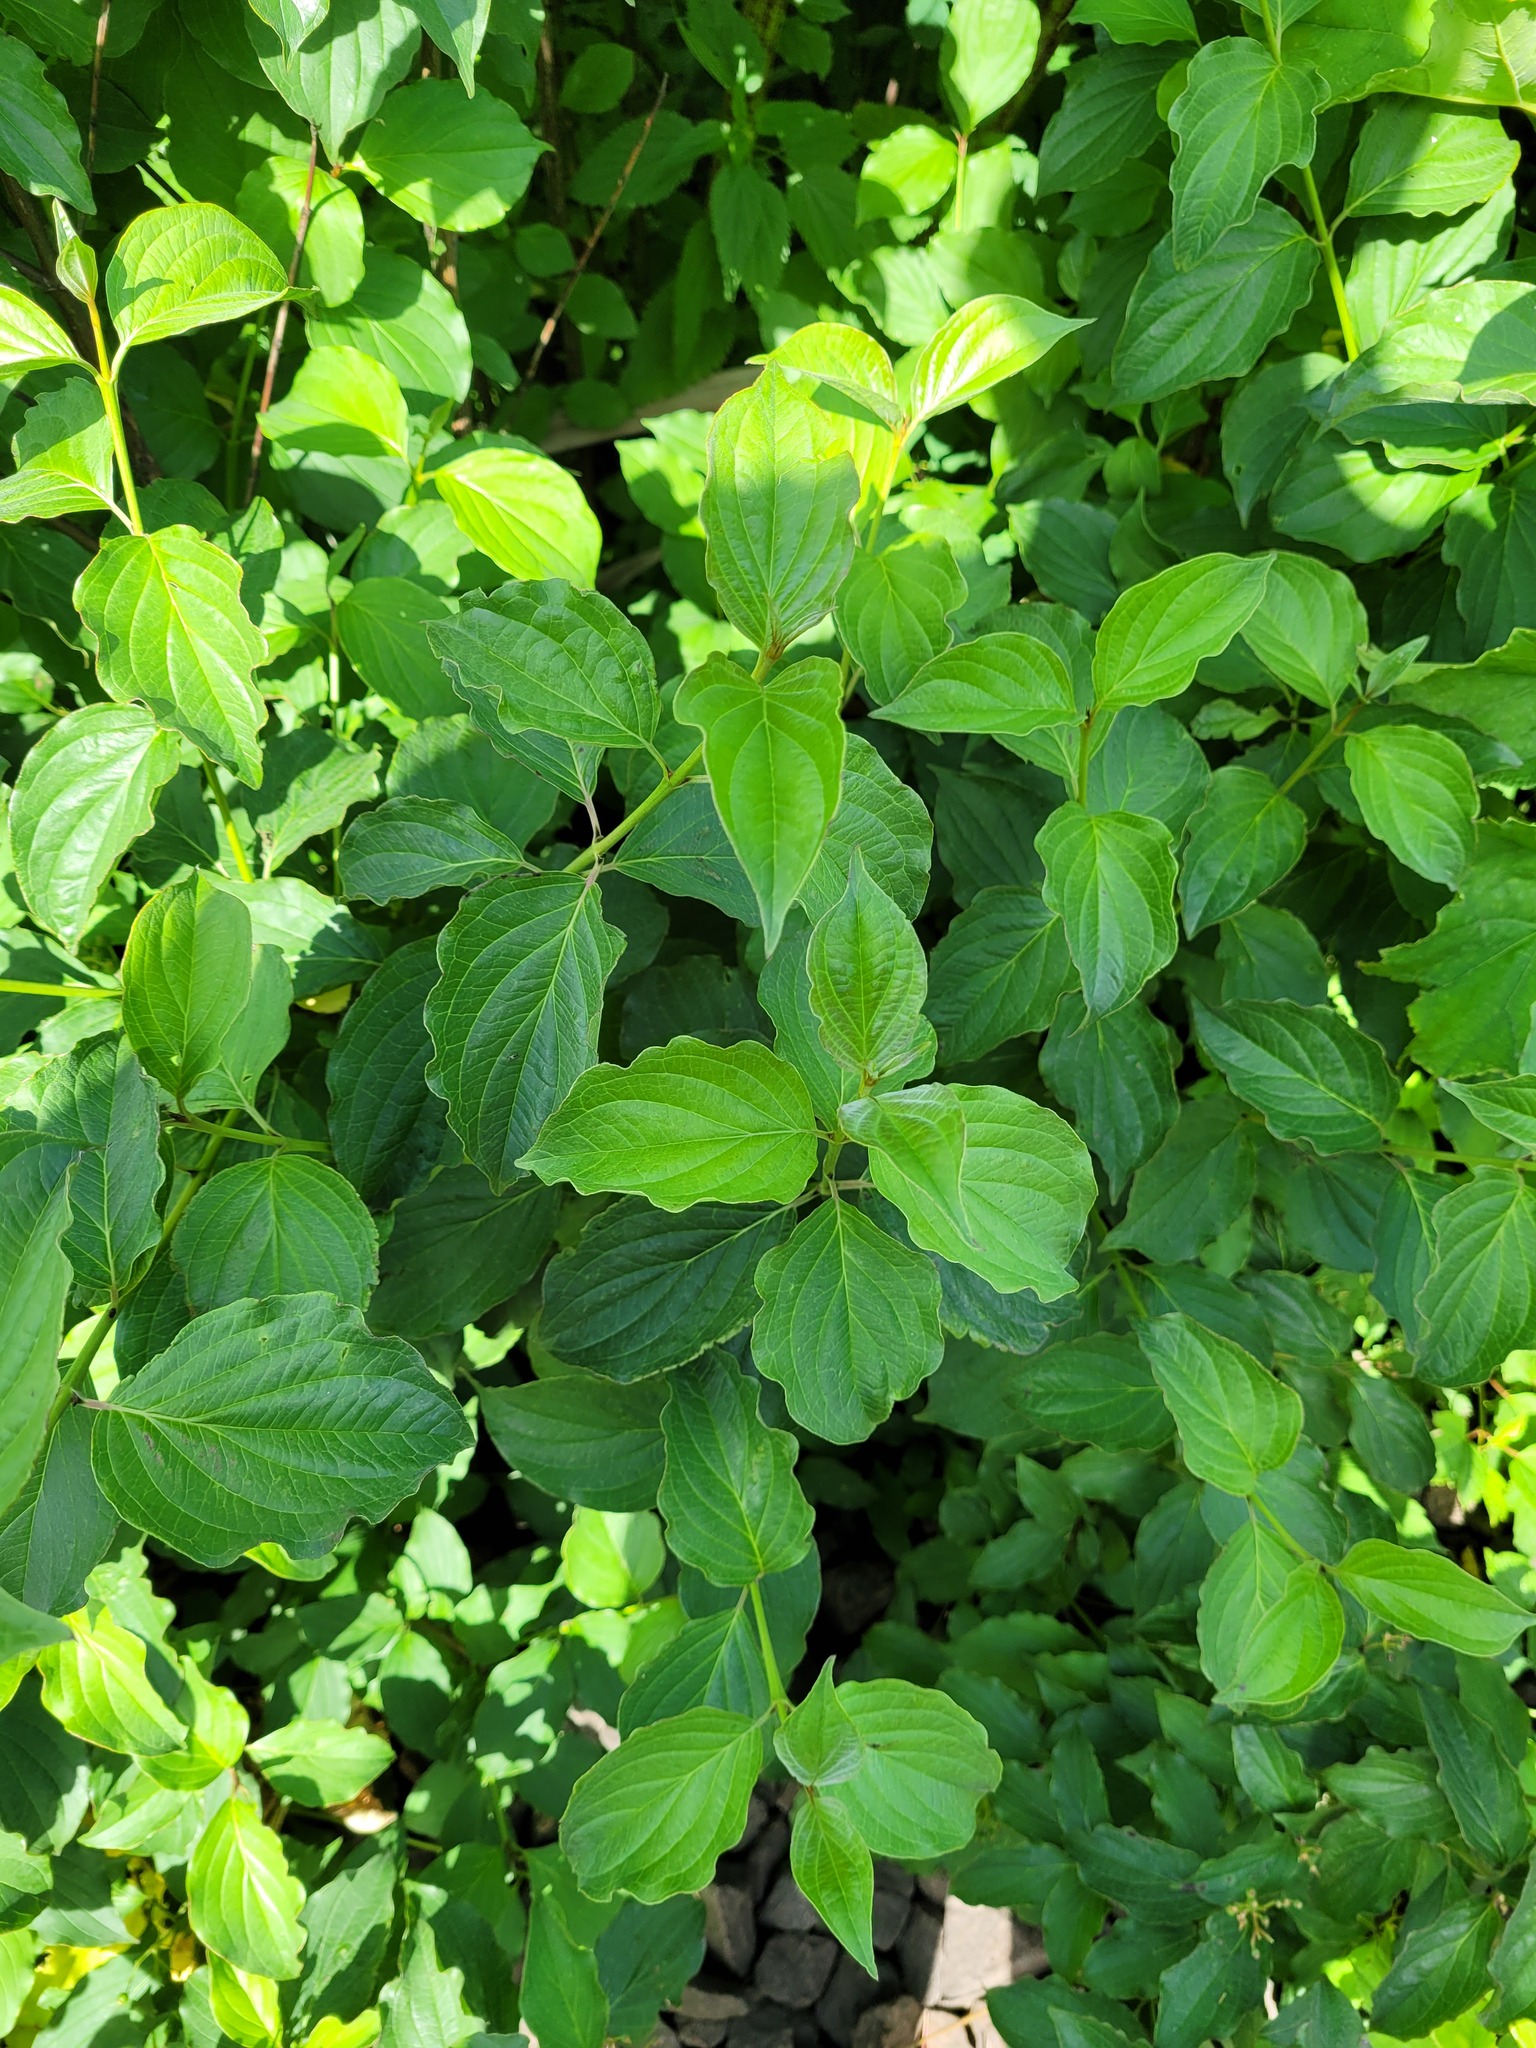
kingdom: Plantae
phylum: Tracheophyta
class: Magnoliopsida
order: Cornales
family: Cornaceae
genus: Cornus
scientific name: Cornus sanguinea
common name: Dogwood
